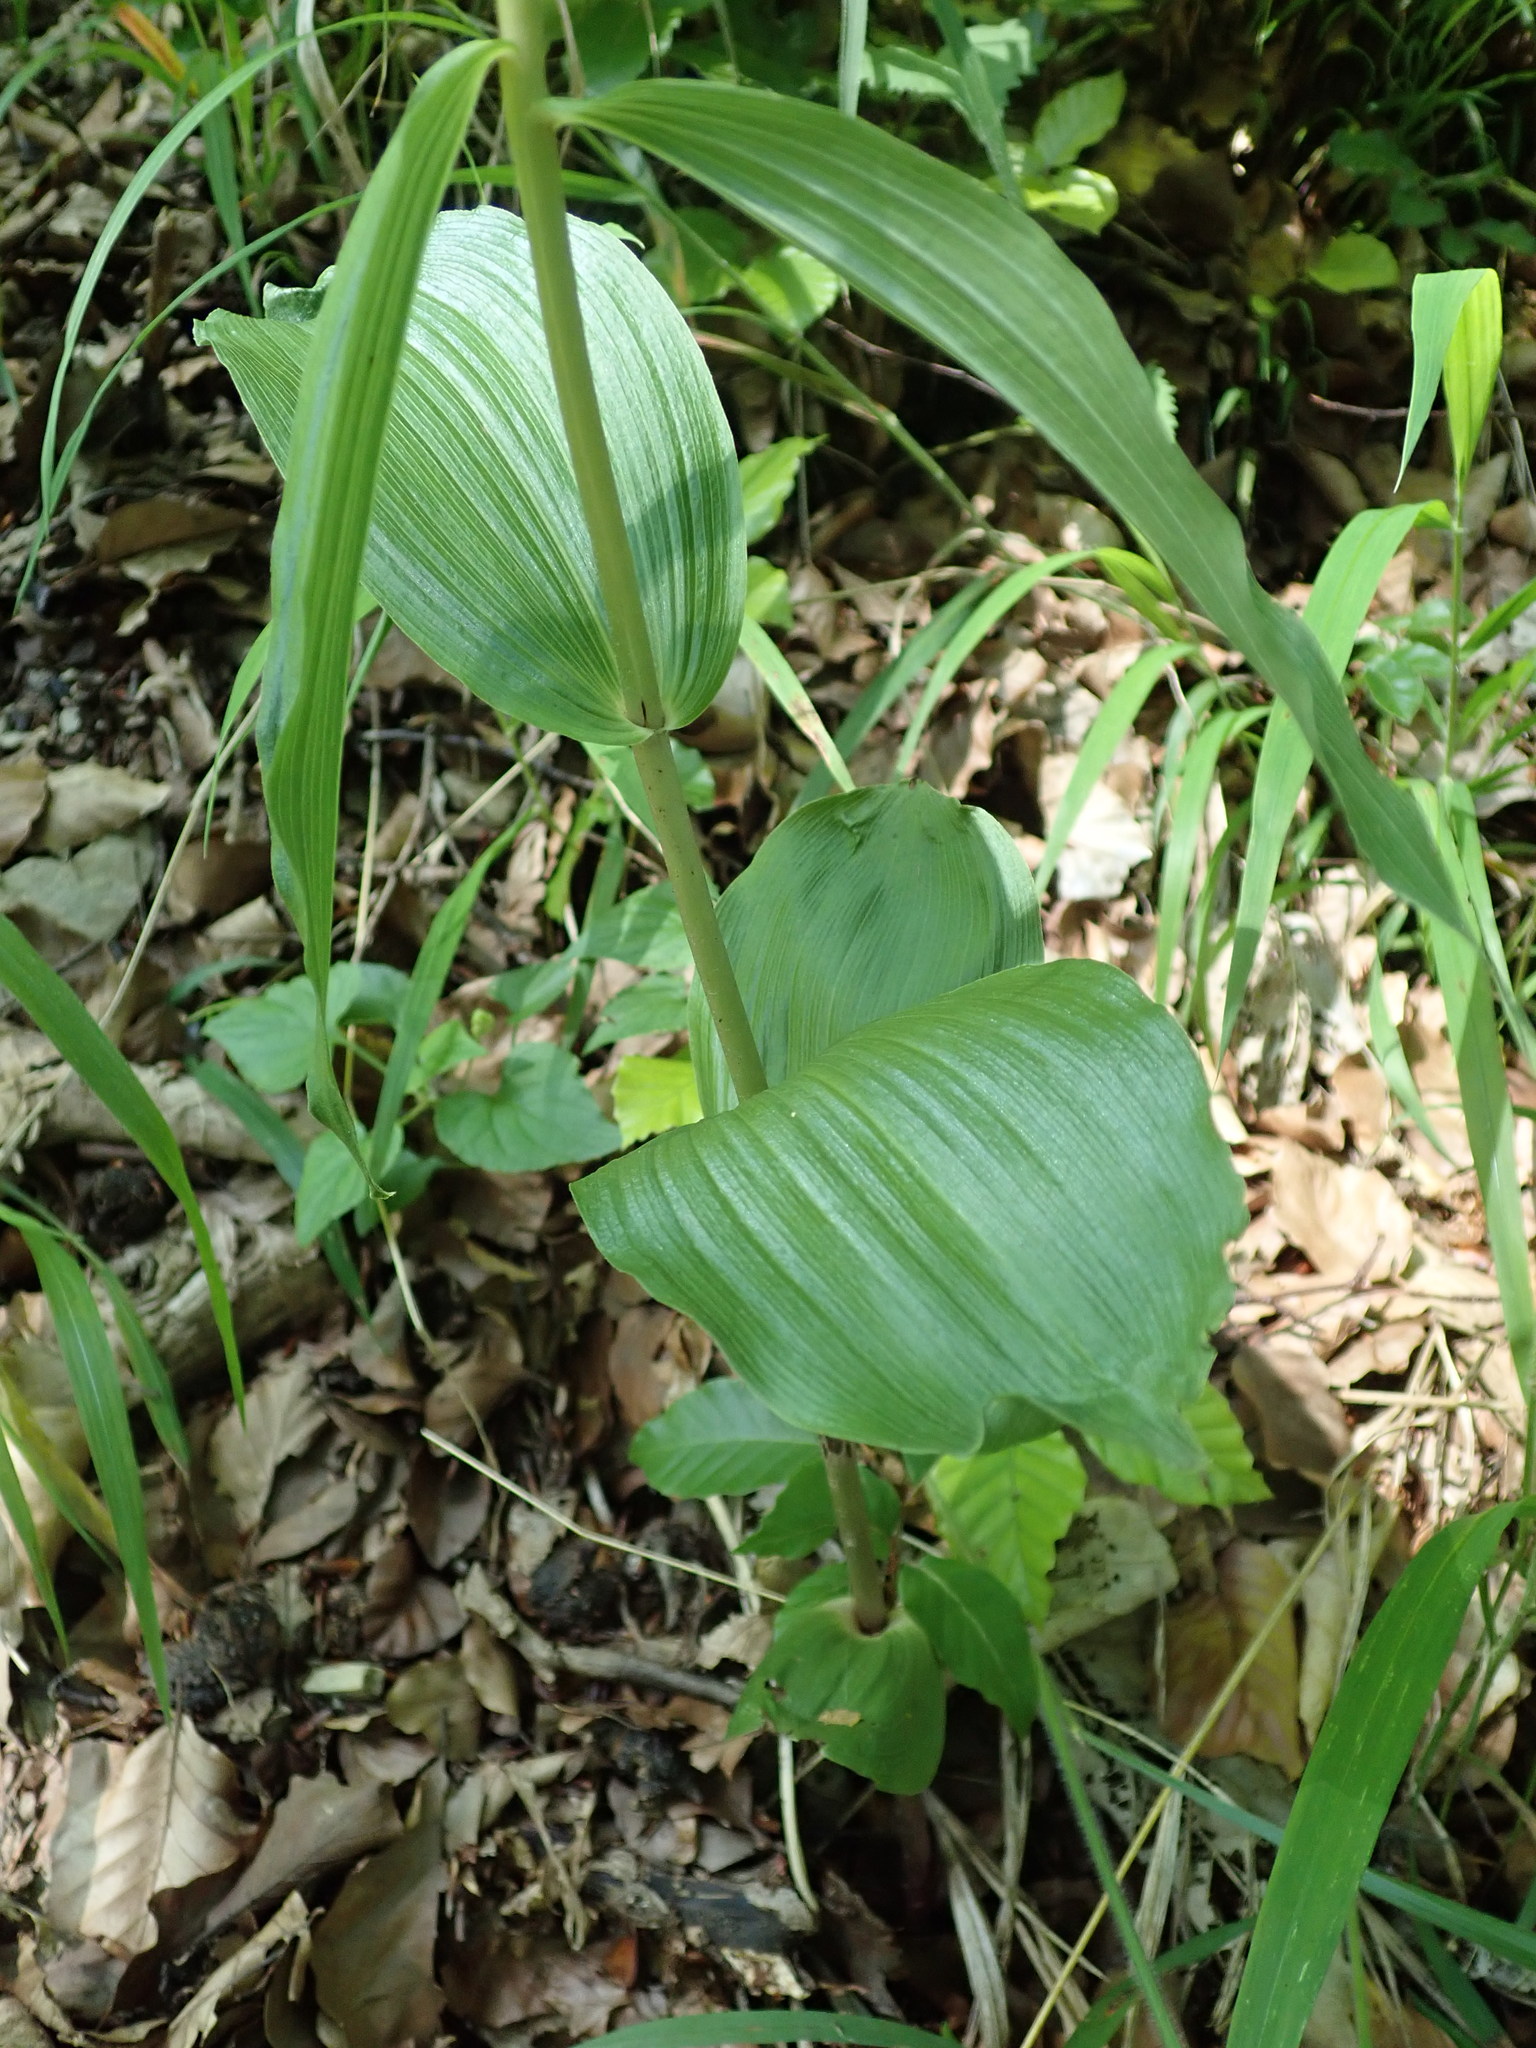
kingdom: Plantae
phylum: Tracheophyta
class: Liliopsida
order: Asparagales
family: Orchidaceae
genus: Epipactis
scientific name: Epipactis helleborine
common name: Broad-leaved helleborine
